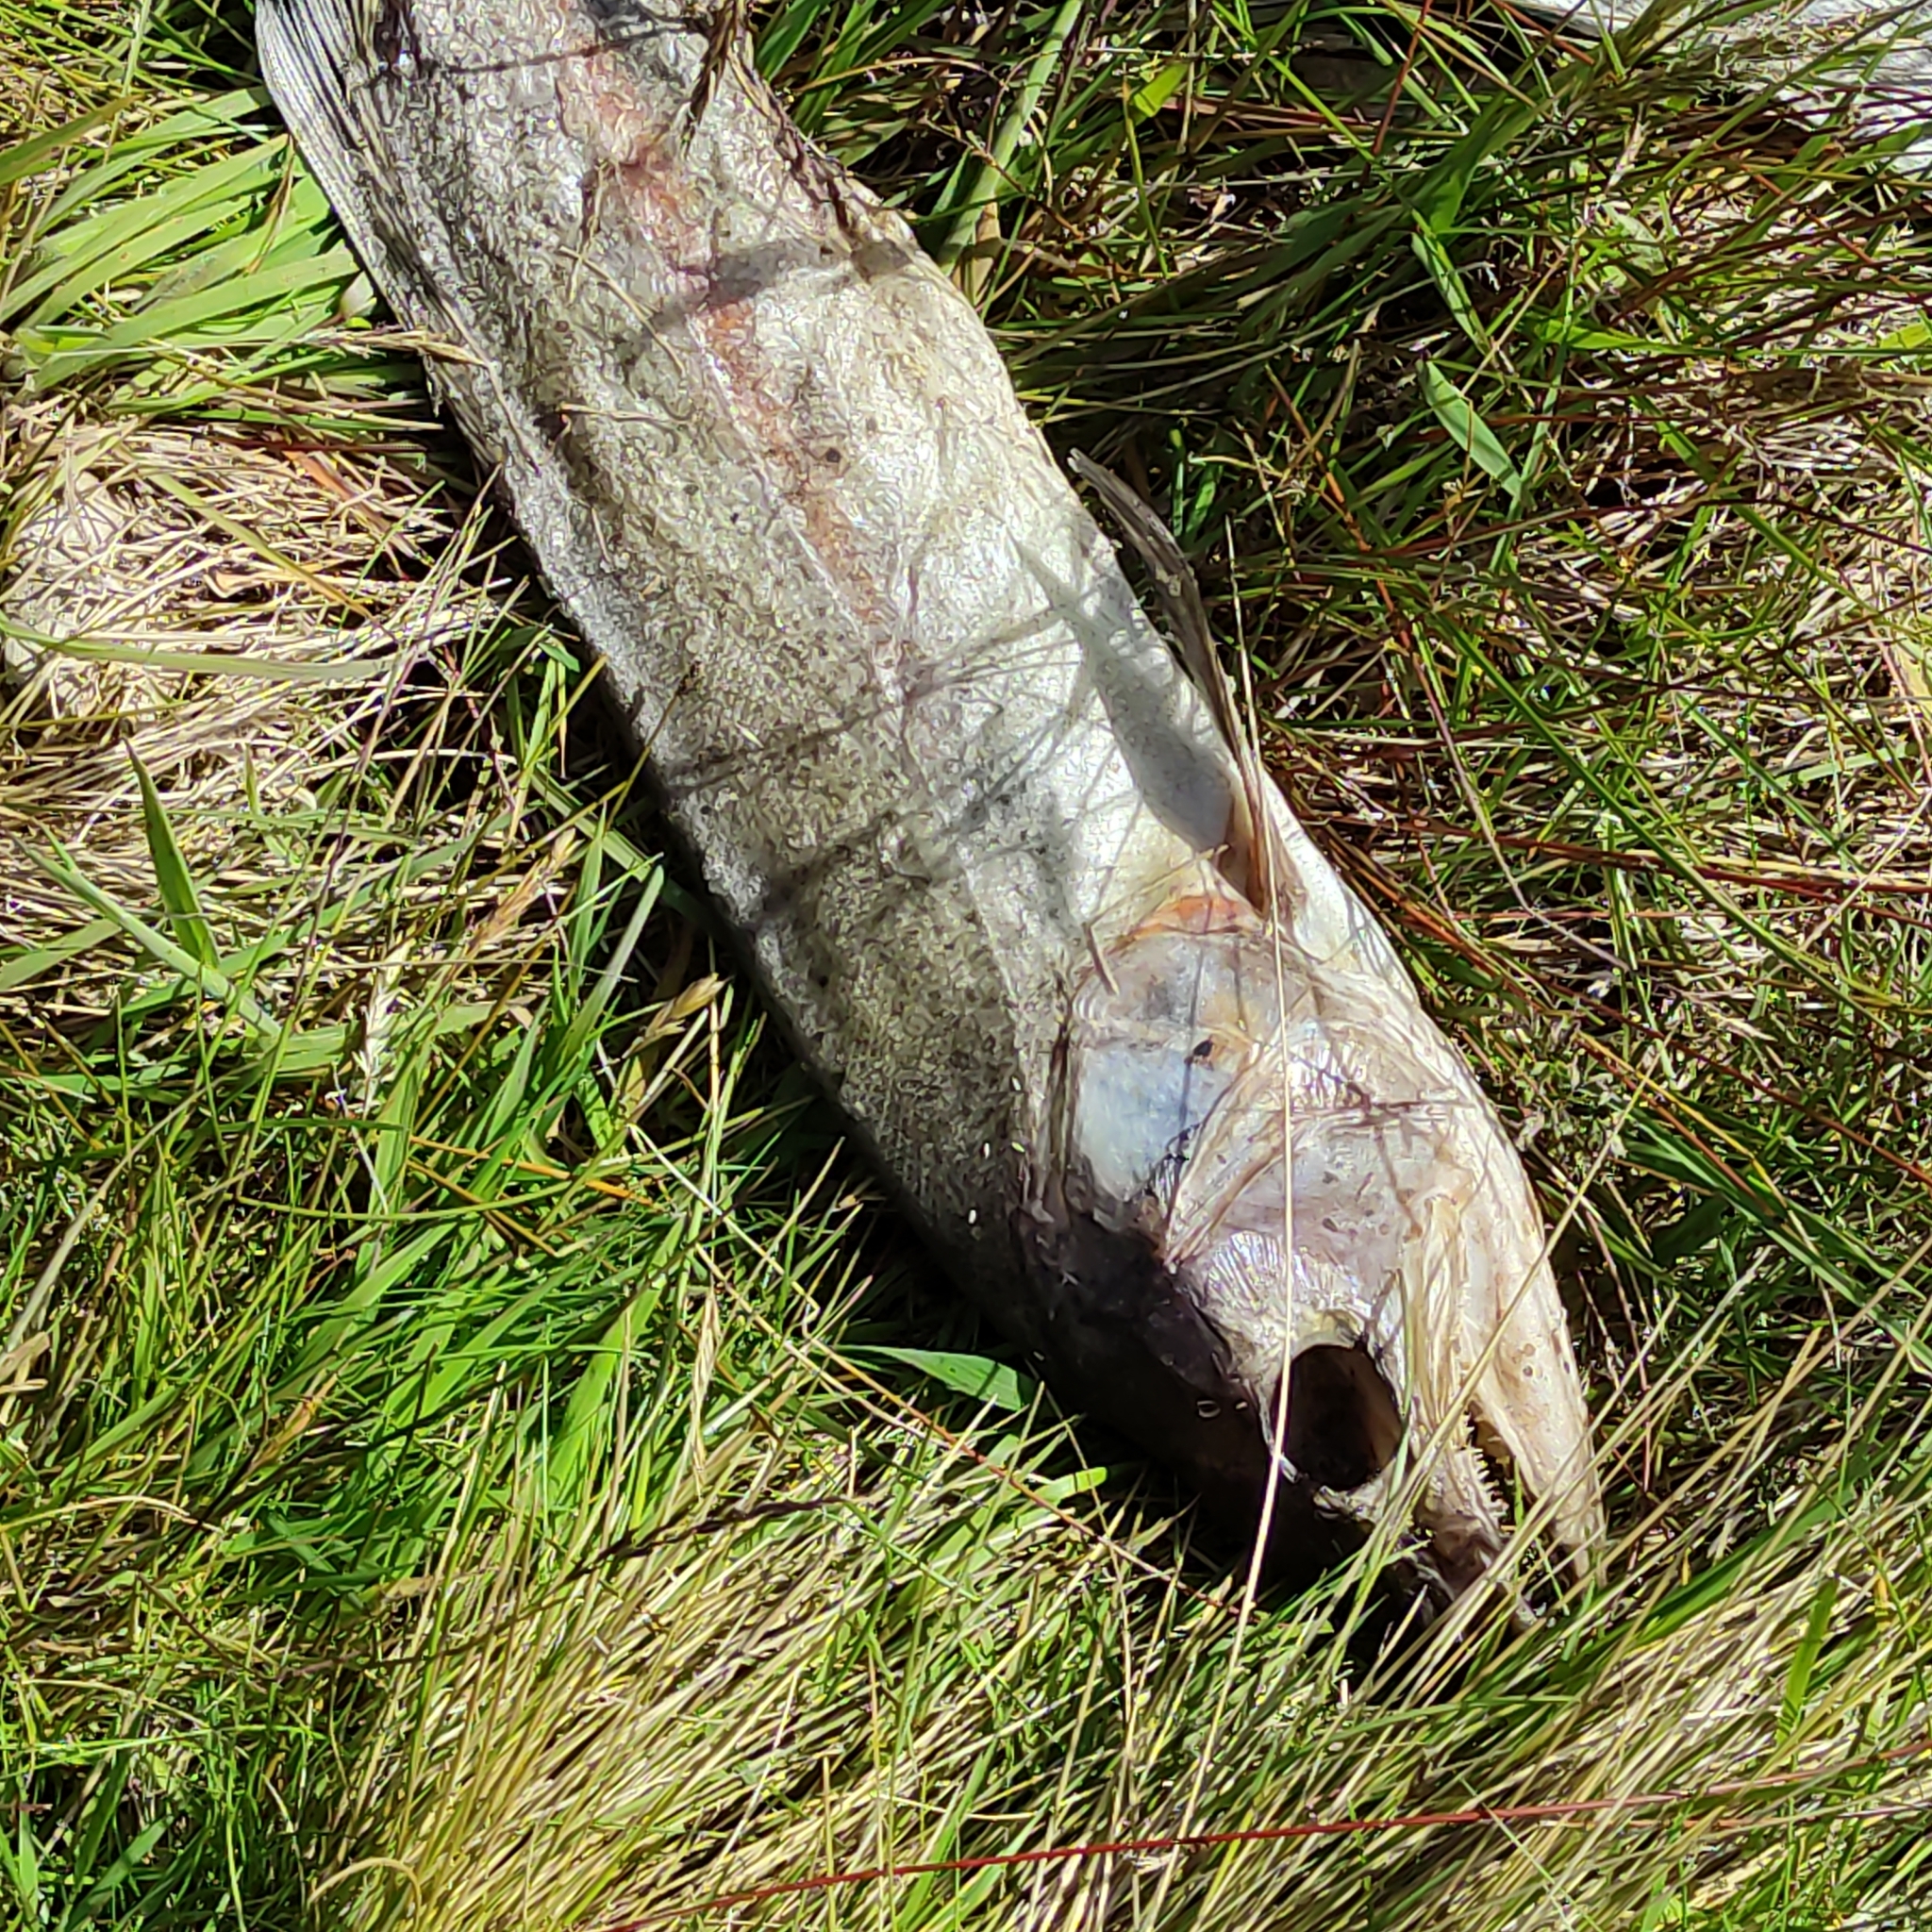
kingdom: Animalia
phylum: Chordata
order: Salmoniformes
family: Salmonidae
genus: Oncorhynchus
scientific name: Oncorhynchus mykiss
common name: Rainbow trout
